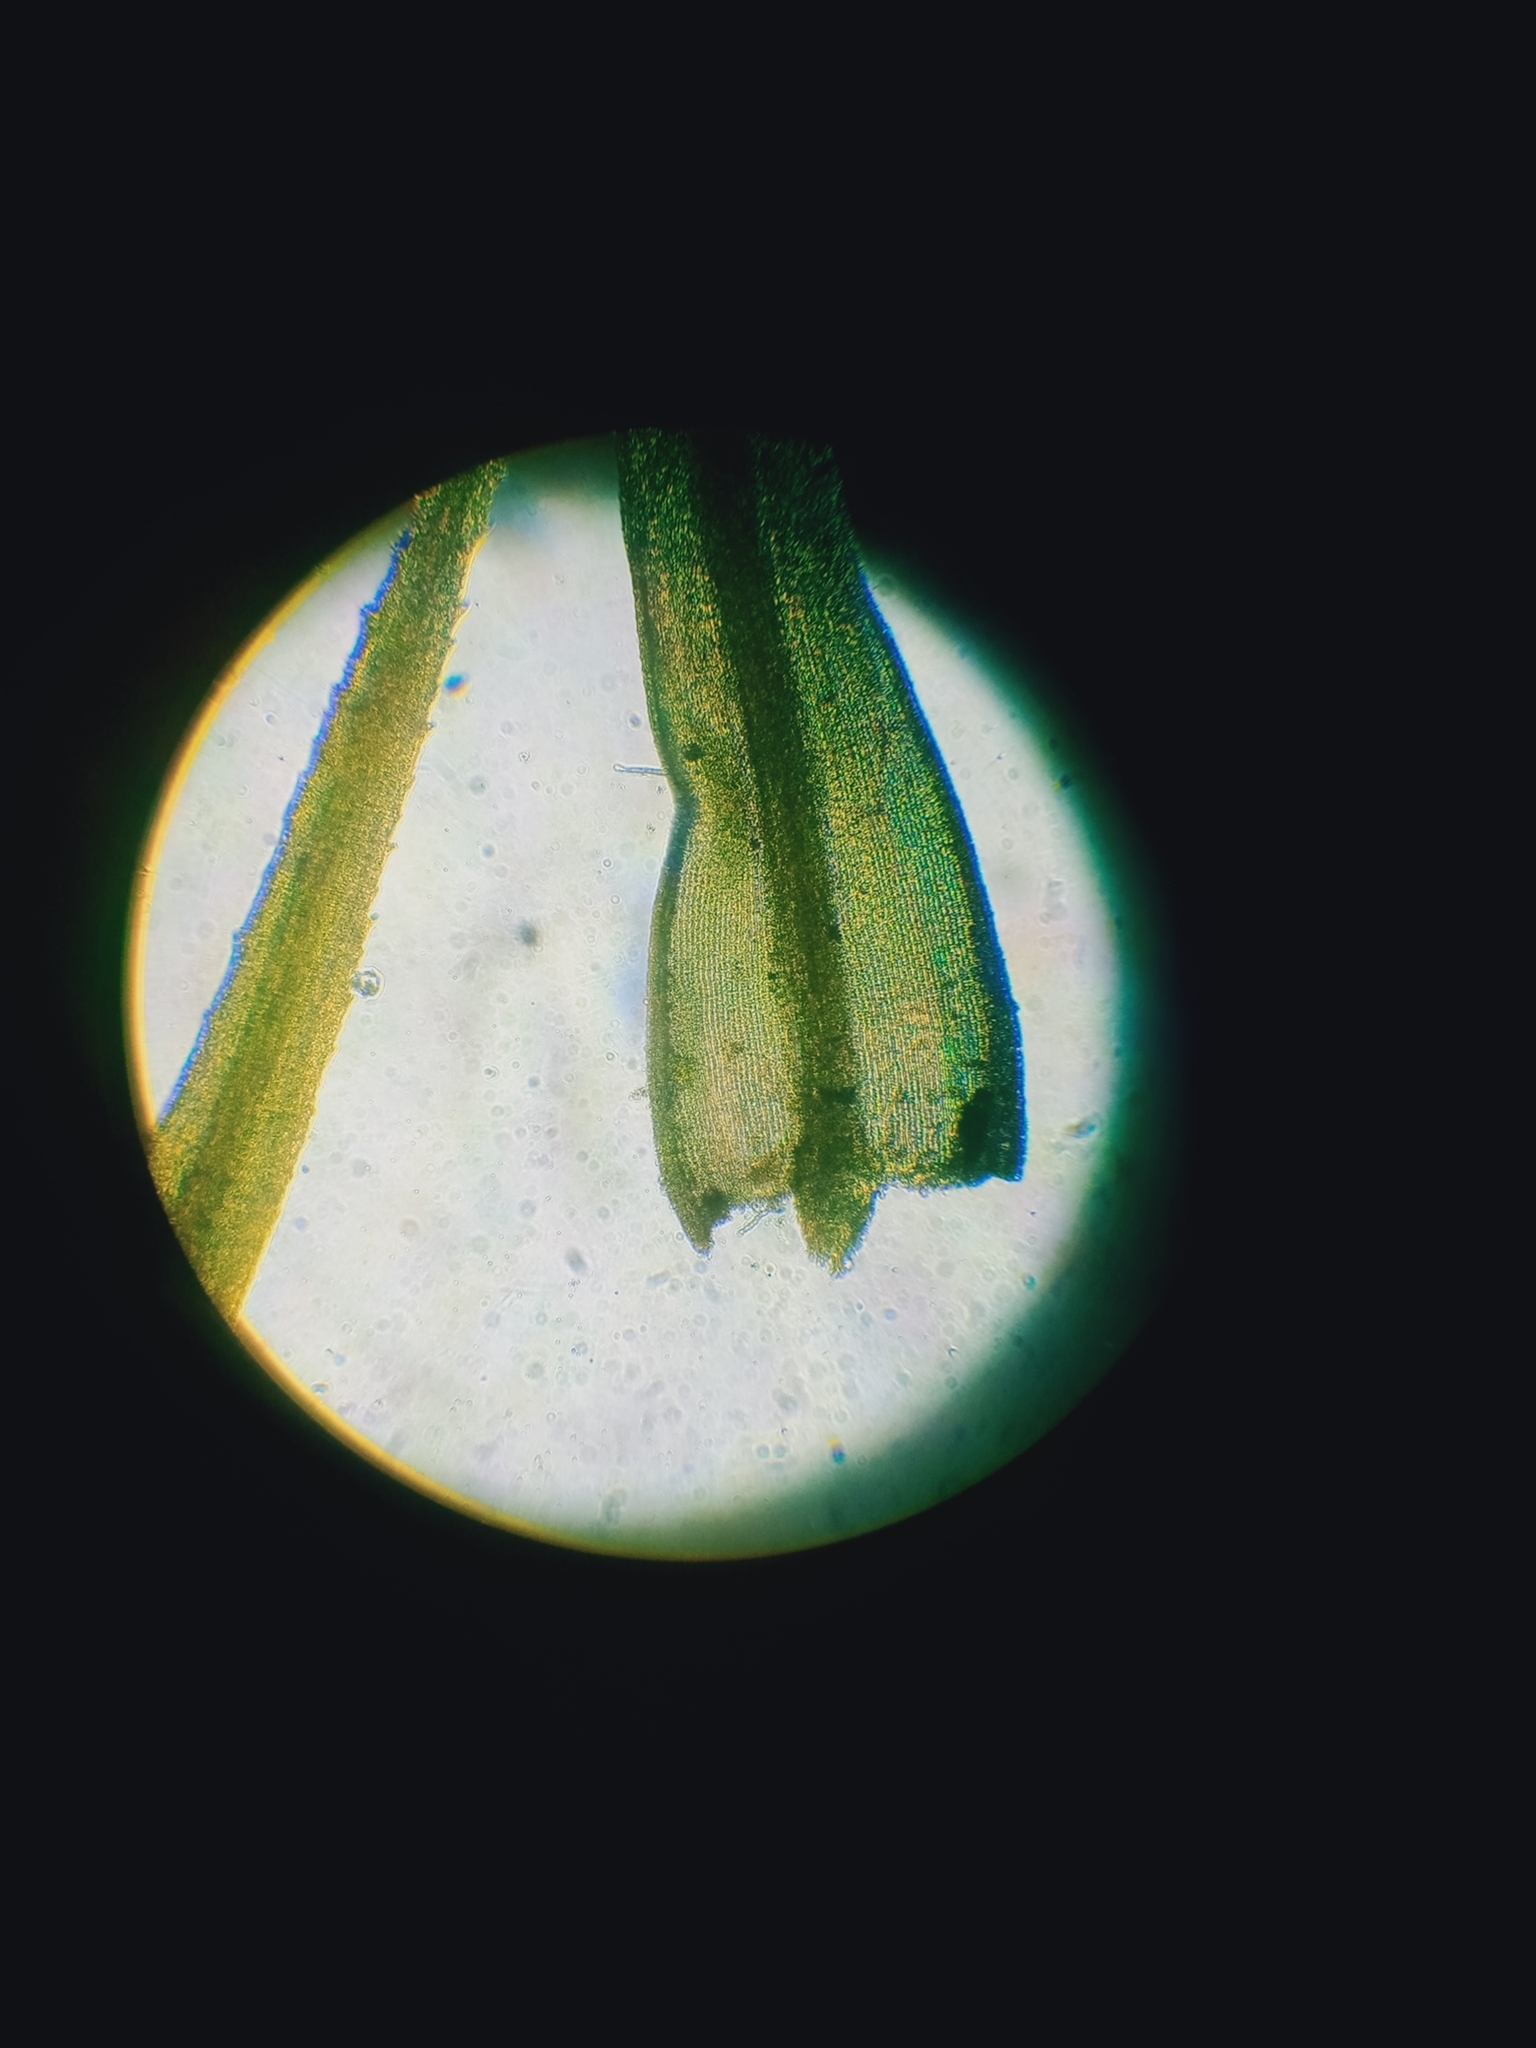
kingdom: Plantae
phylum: Bryophyta
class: Bryopsida
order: Bartramiales
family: Bartramiaceae
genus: Anacolia
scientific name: Anacolia breutelii
